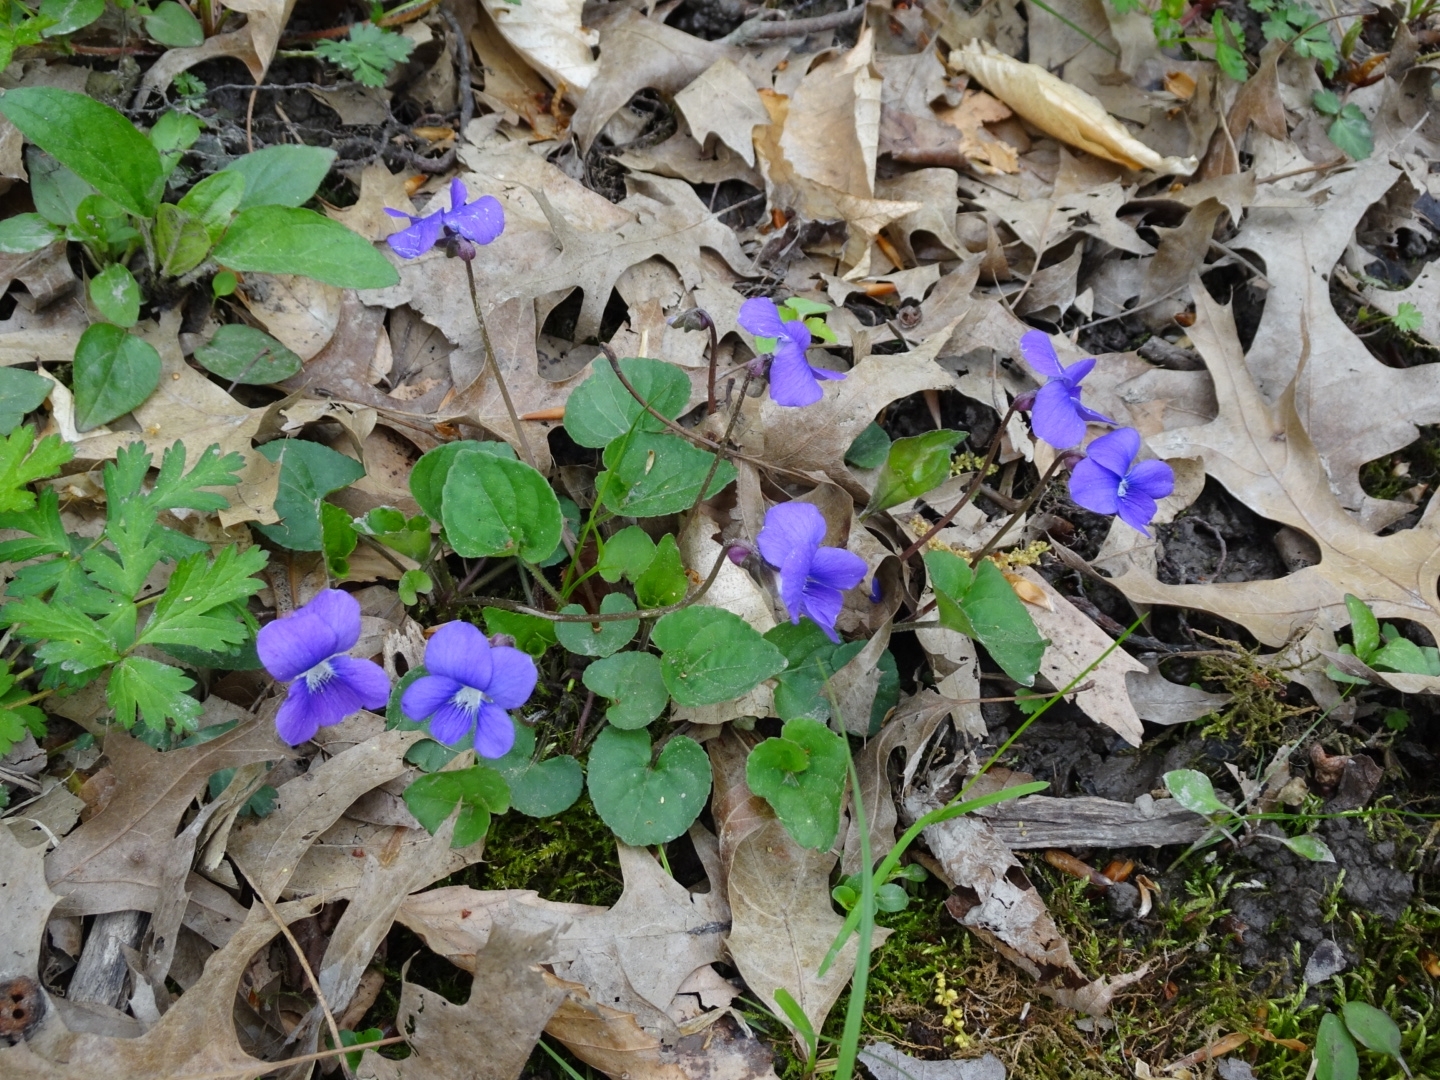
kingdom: Plantae
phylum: Tracheophyta
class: Magnoliopsida
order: Malpighiales
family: Violaceae
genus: Viola
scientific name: Viola sororia
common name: Dooryard violet
